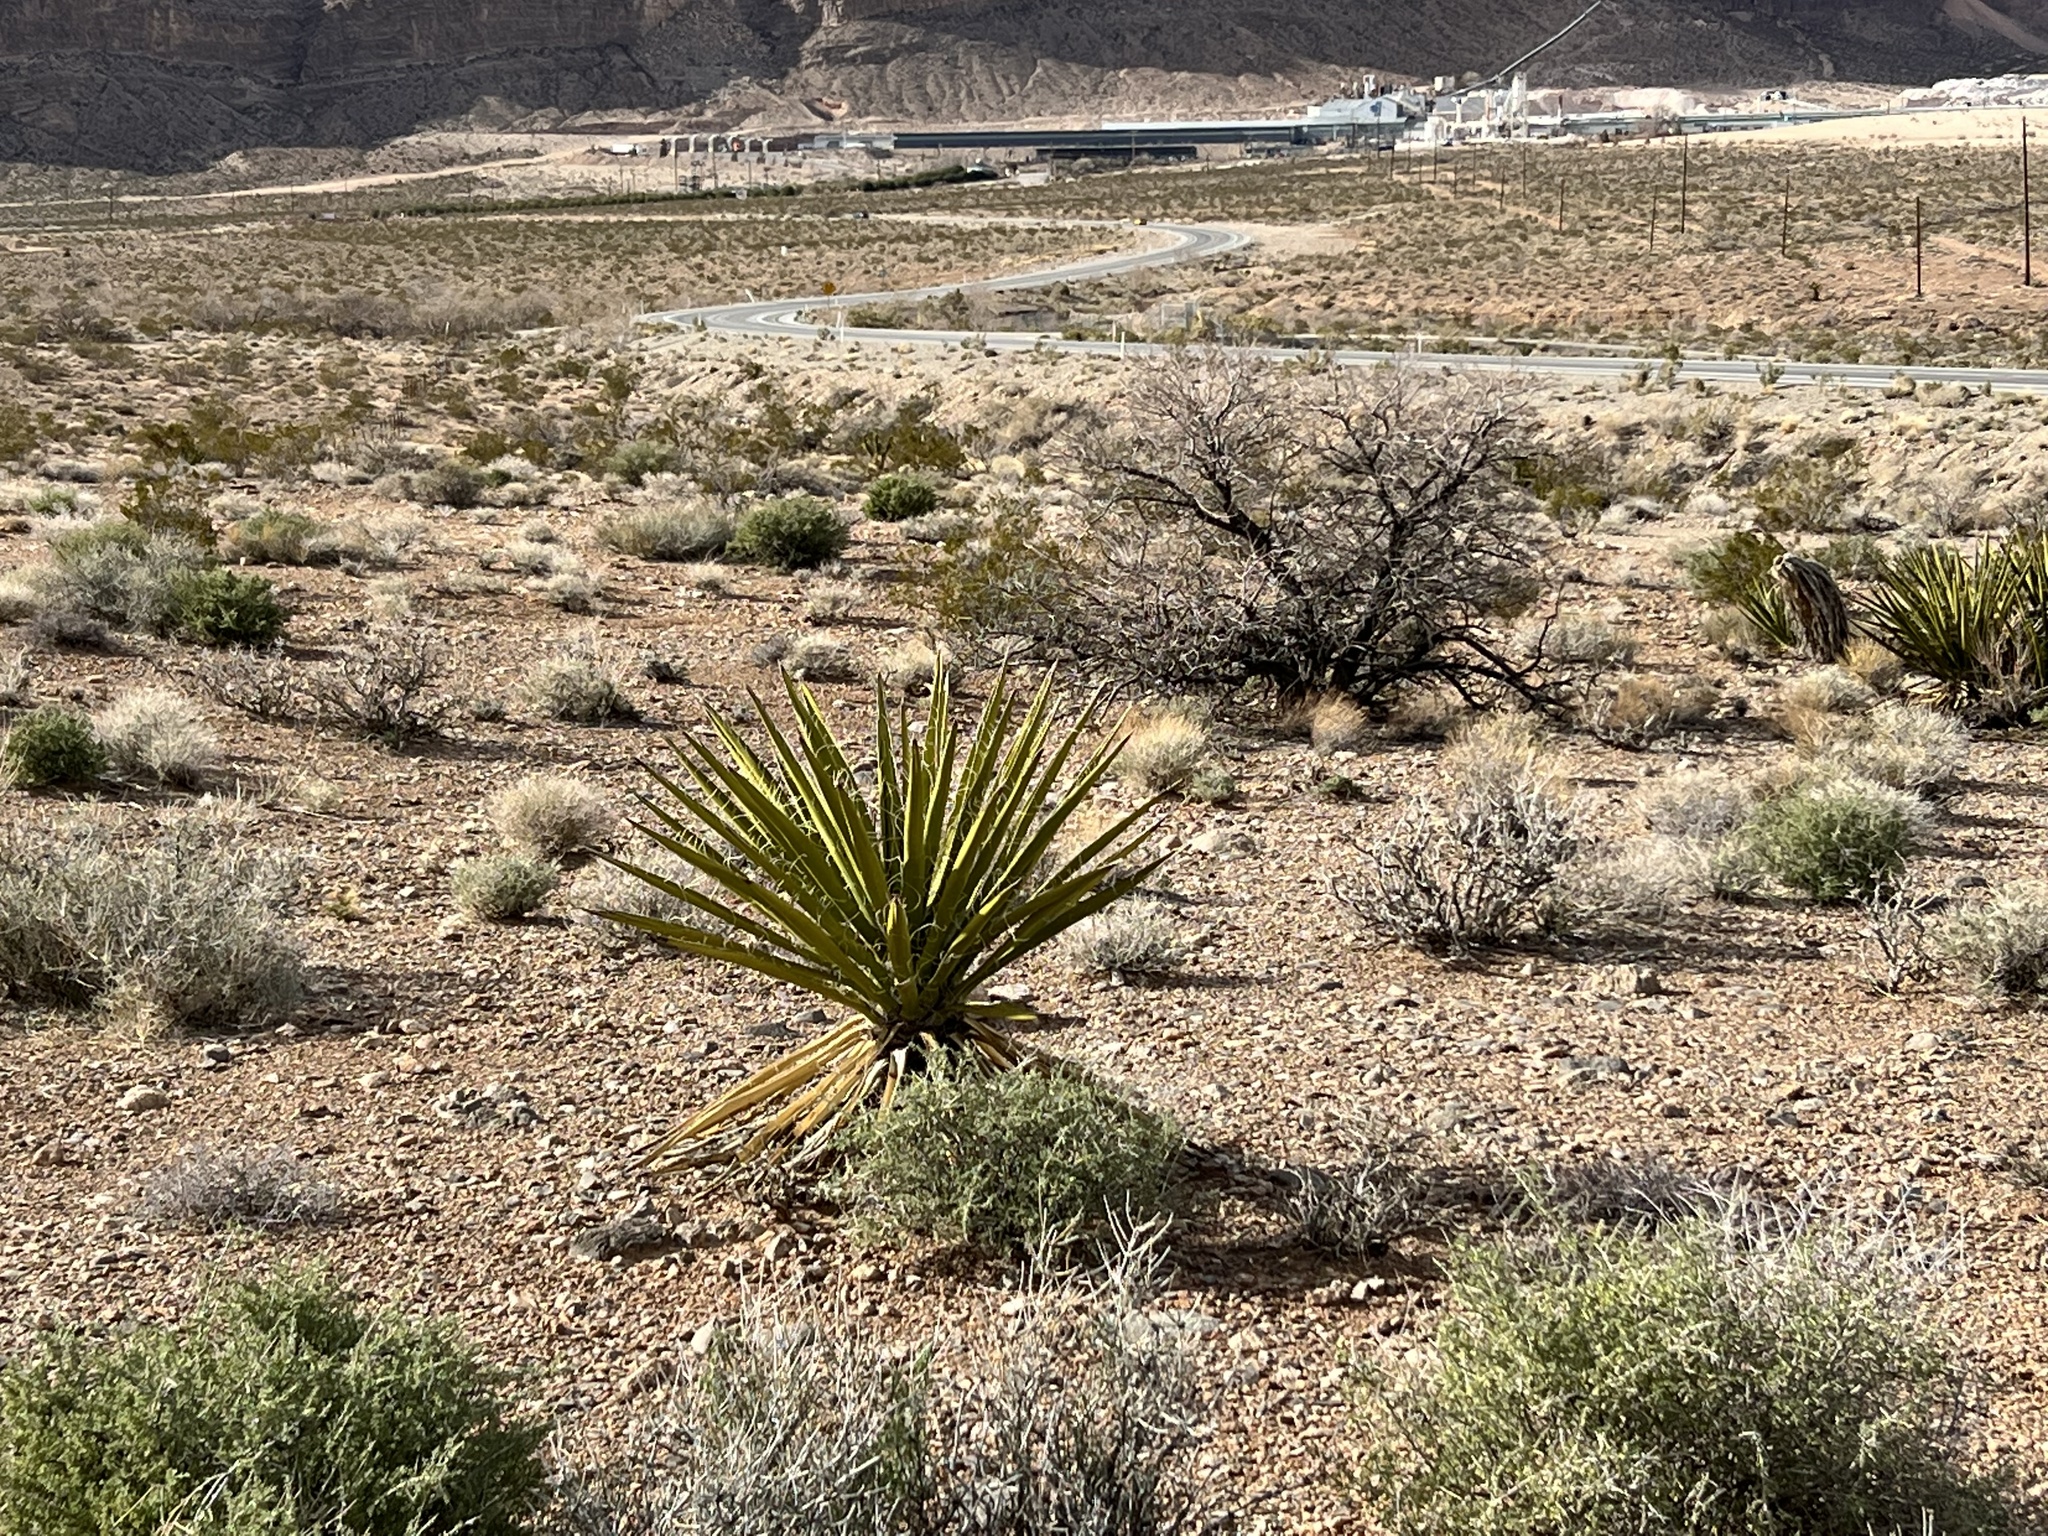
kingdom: Plantae
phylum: Tracheophyta
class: Liliopsida
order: Asparagales
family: Asparagaceae
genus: Yucca
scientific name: Yucca schidigera
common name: Mojave yucca
